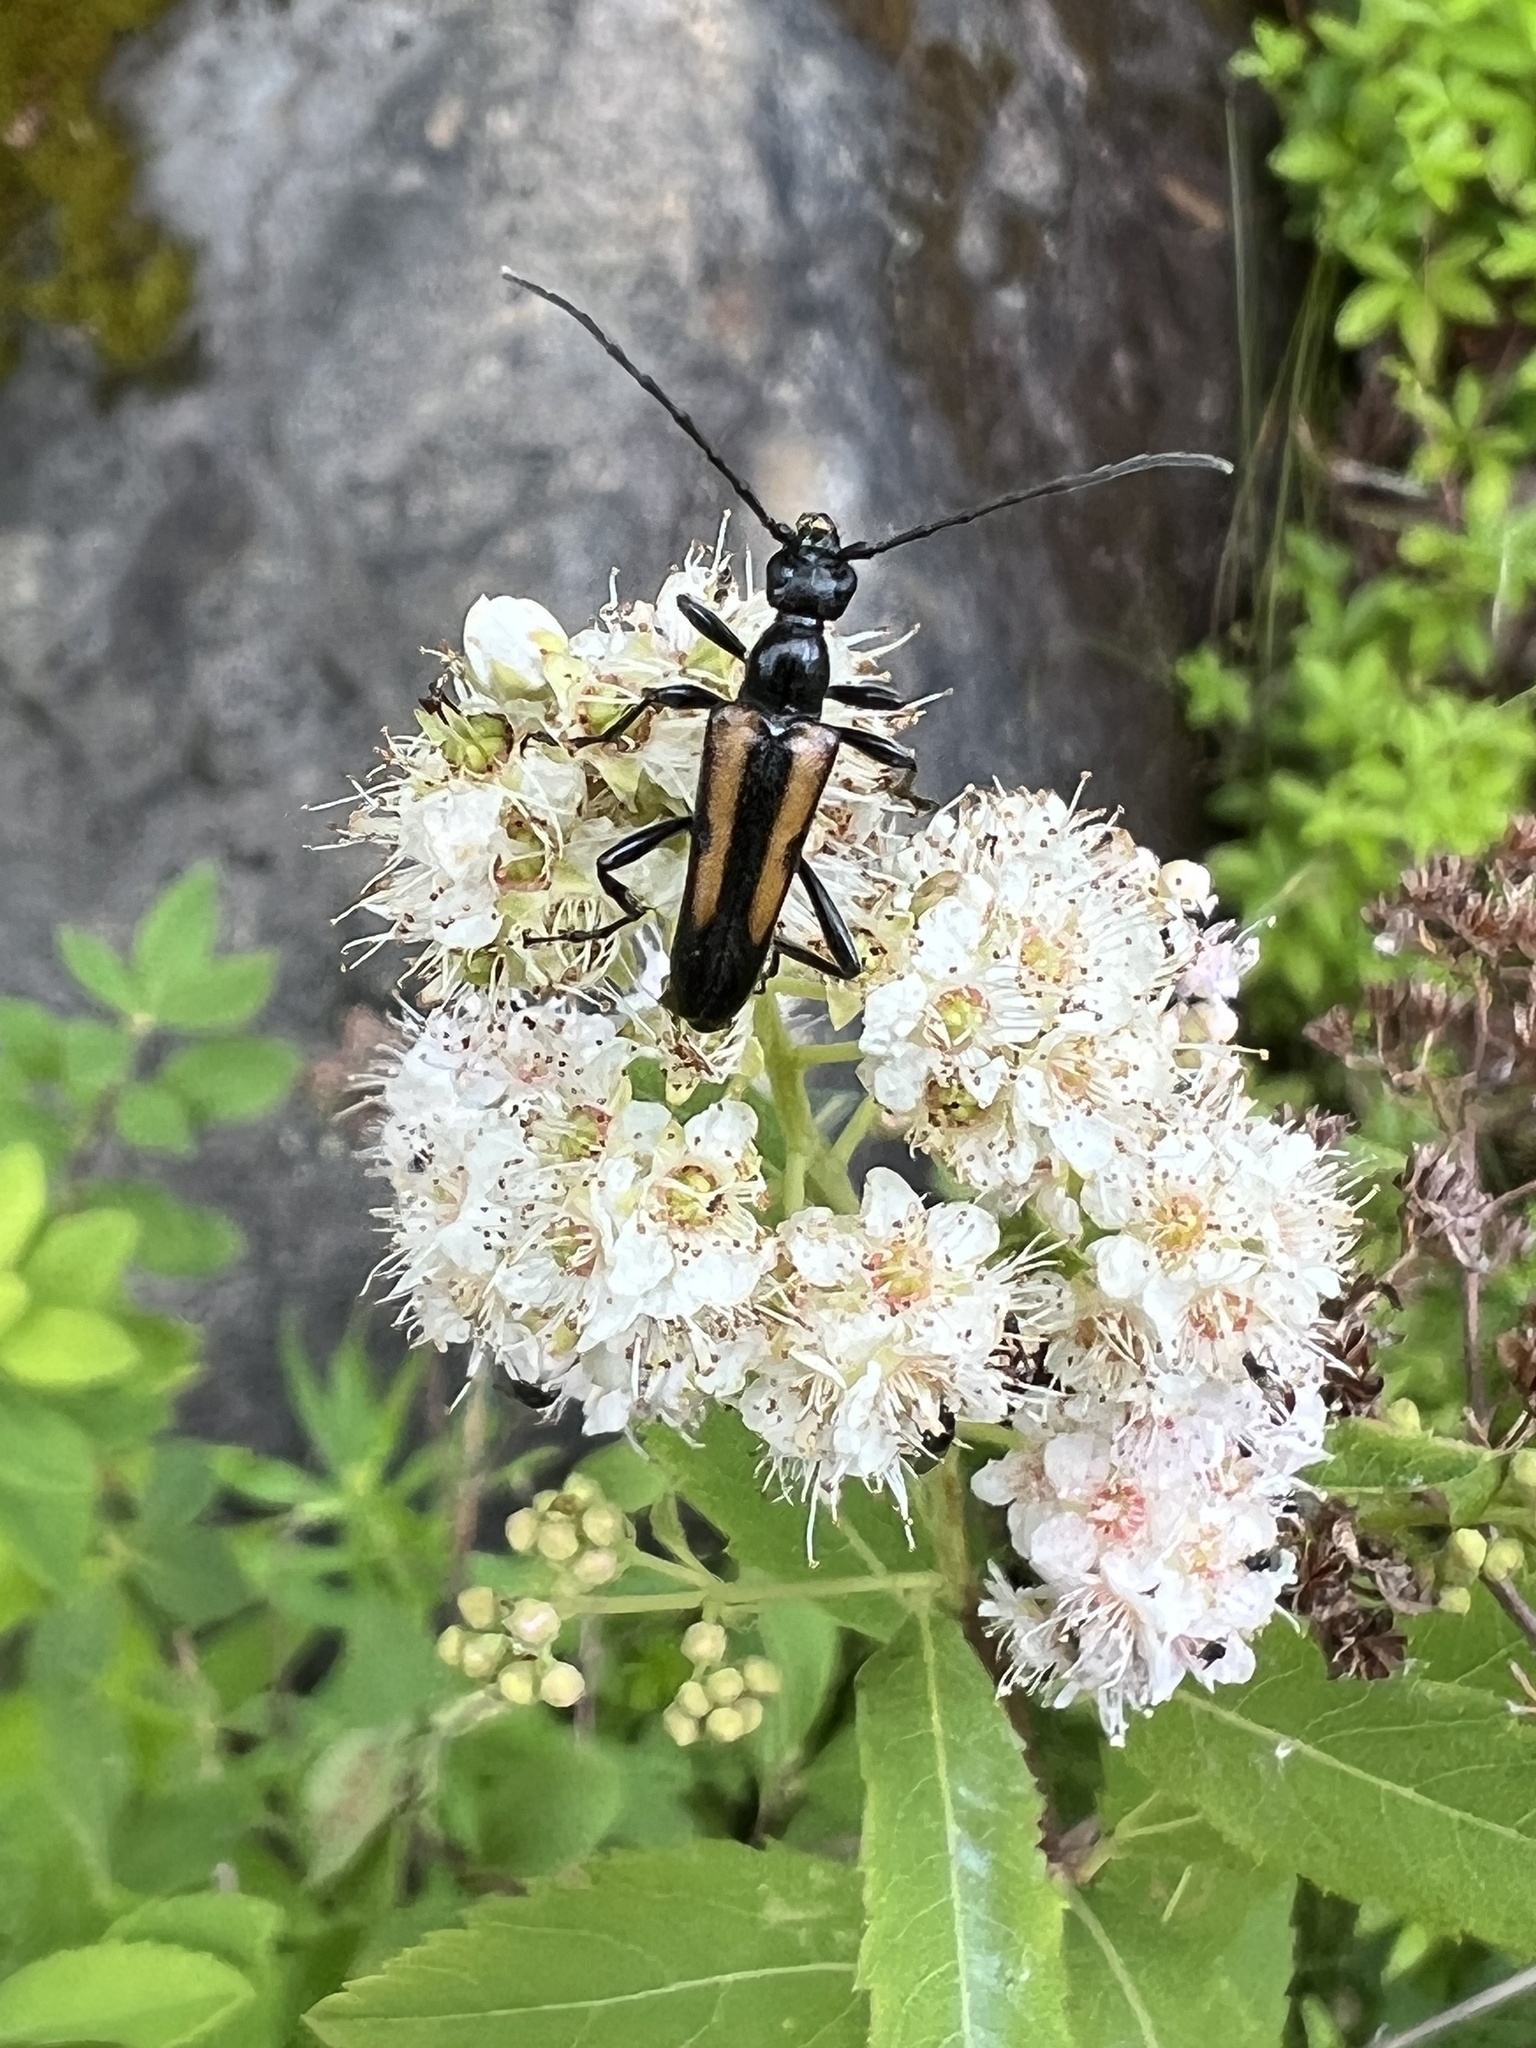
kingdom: Animalia
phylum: Arthropoda
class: Insecta
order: Coleoptera
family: Cerambycidae
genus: Strangalepta
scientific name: Strangalepta abbreviata
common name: Strangalepta flower longhorn beetle
